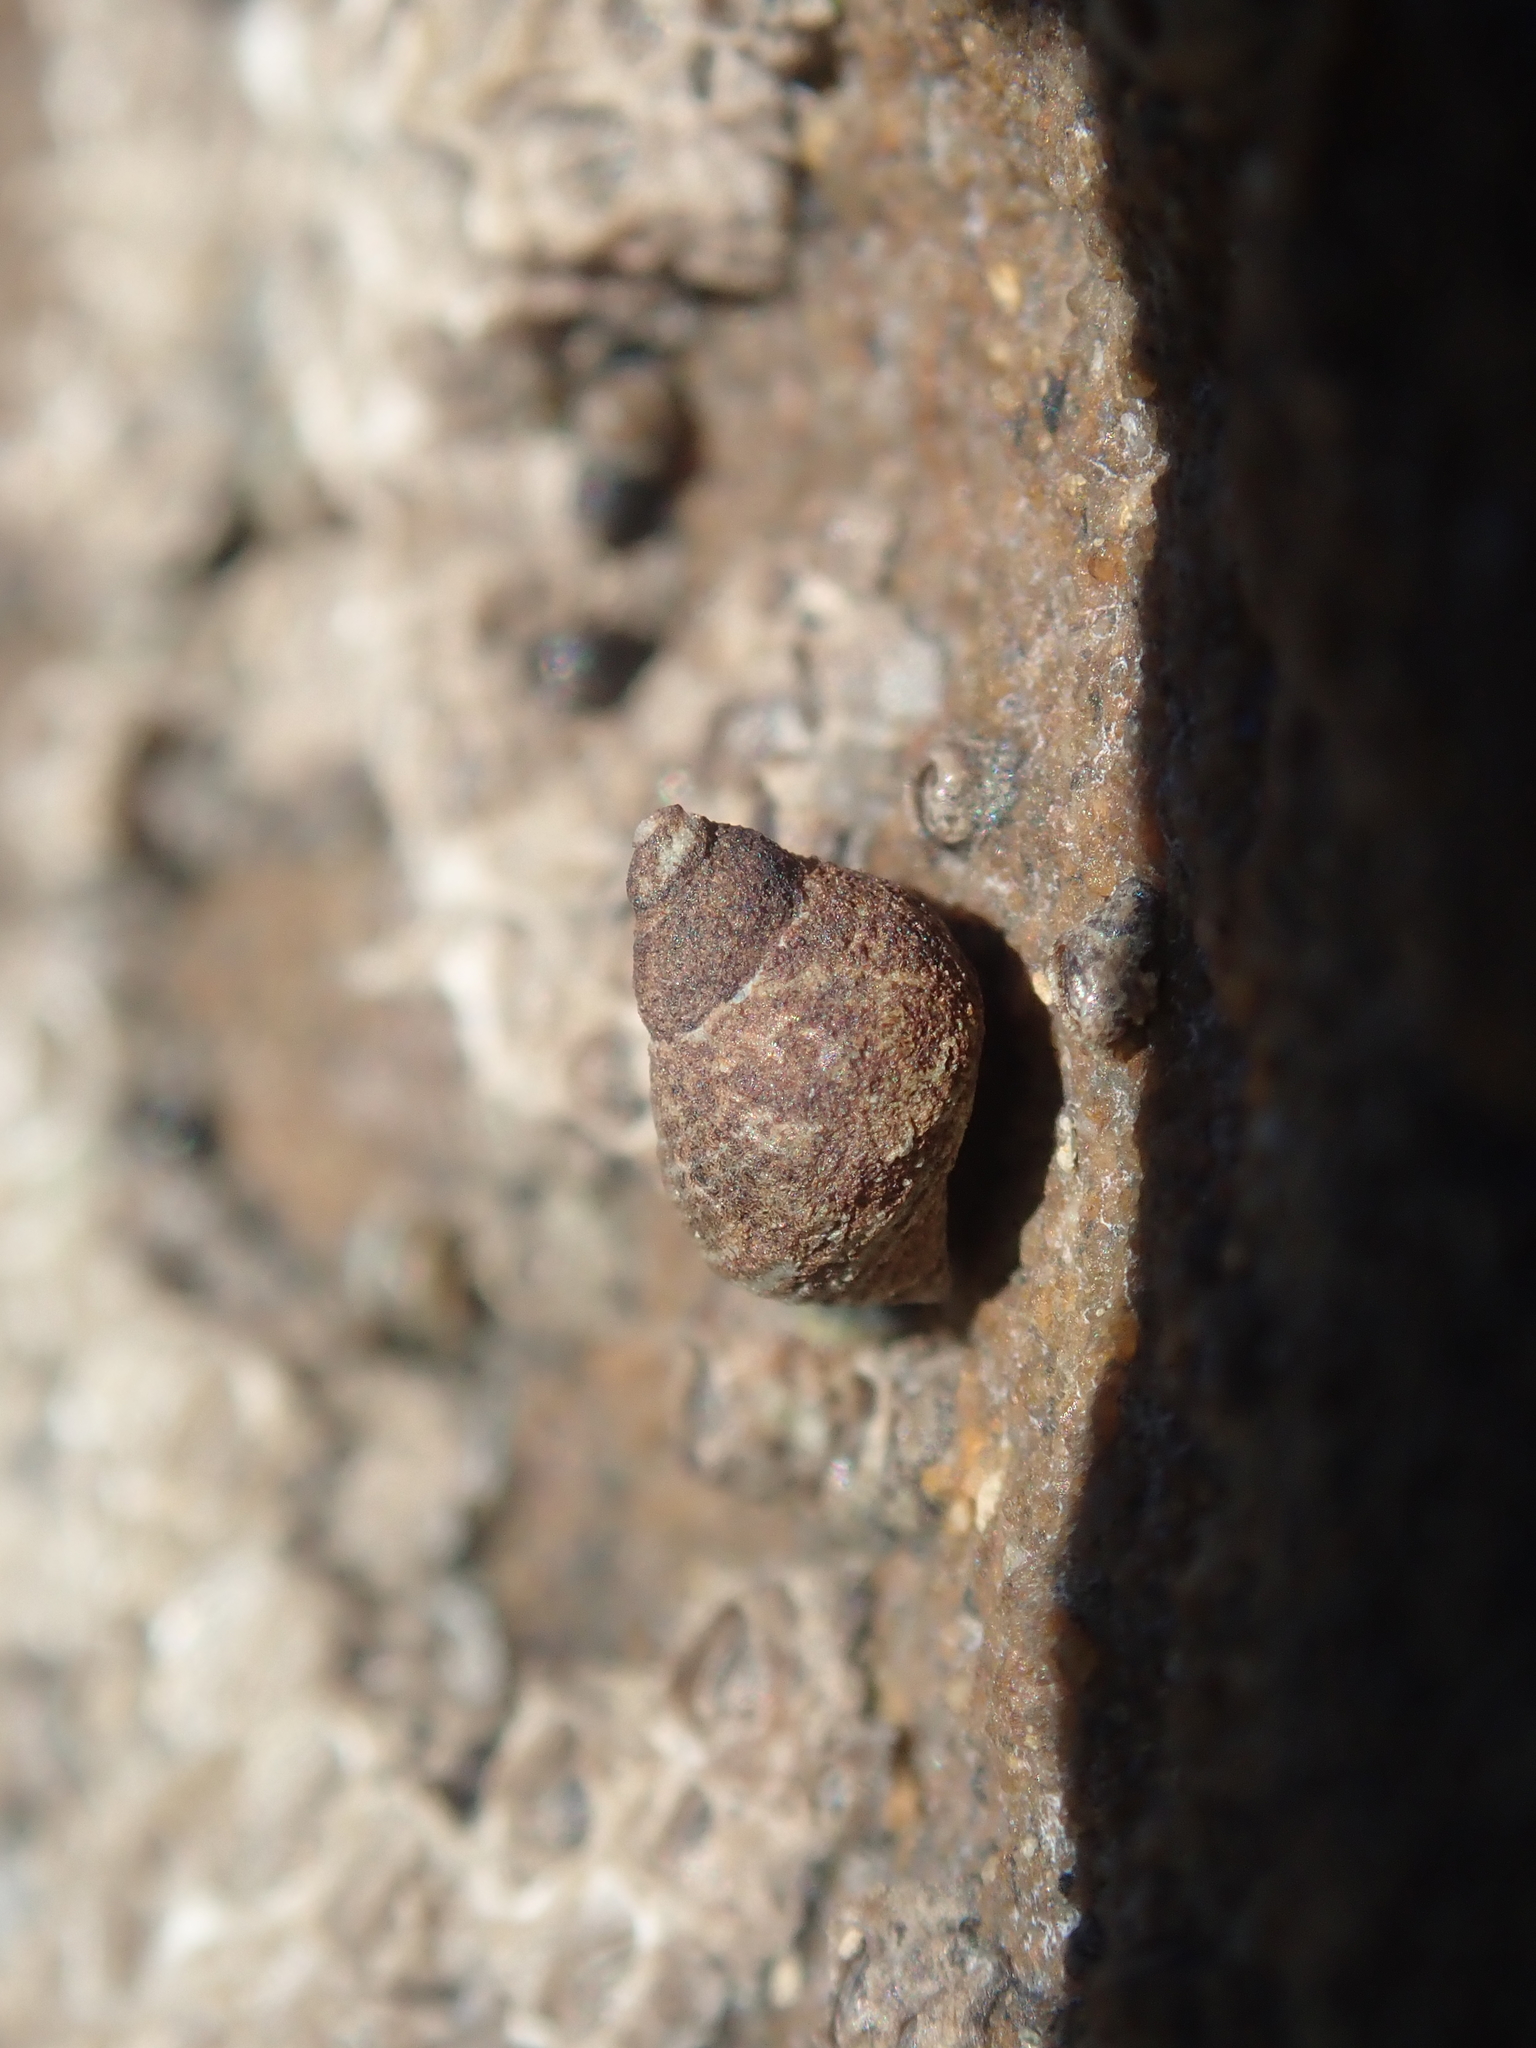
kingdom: Animalia
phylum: Mollusca
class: Gastropoda
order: Littorinimorpha
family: Littorinidae
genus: Austrolittorina
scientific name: Austrolittorina cincta
